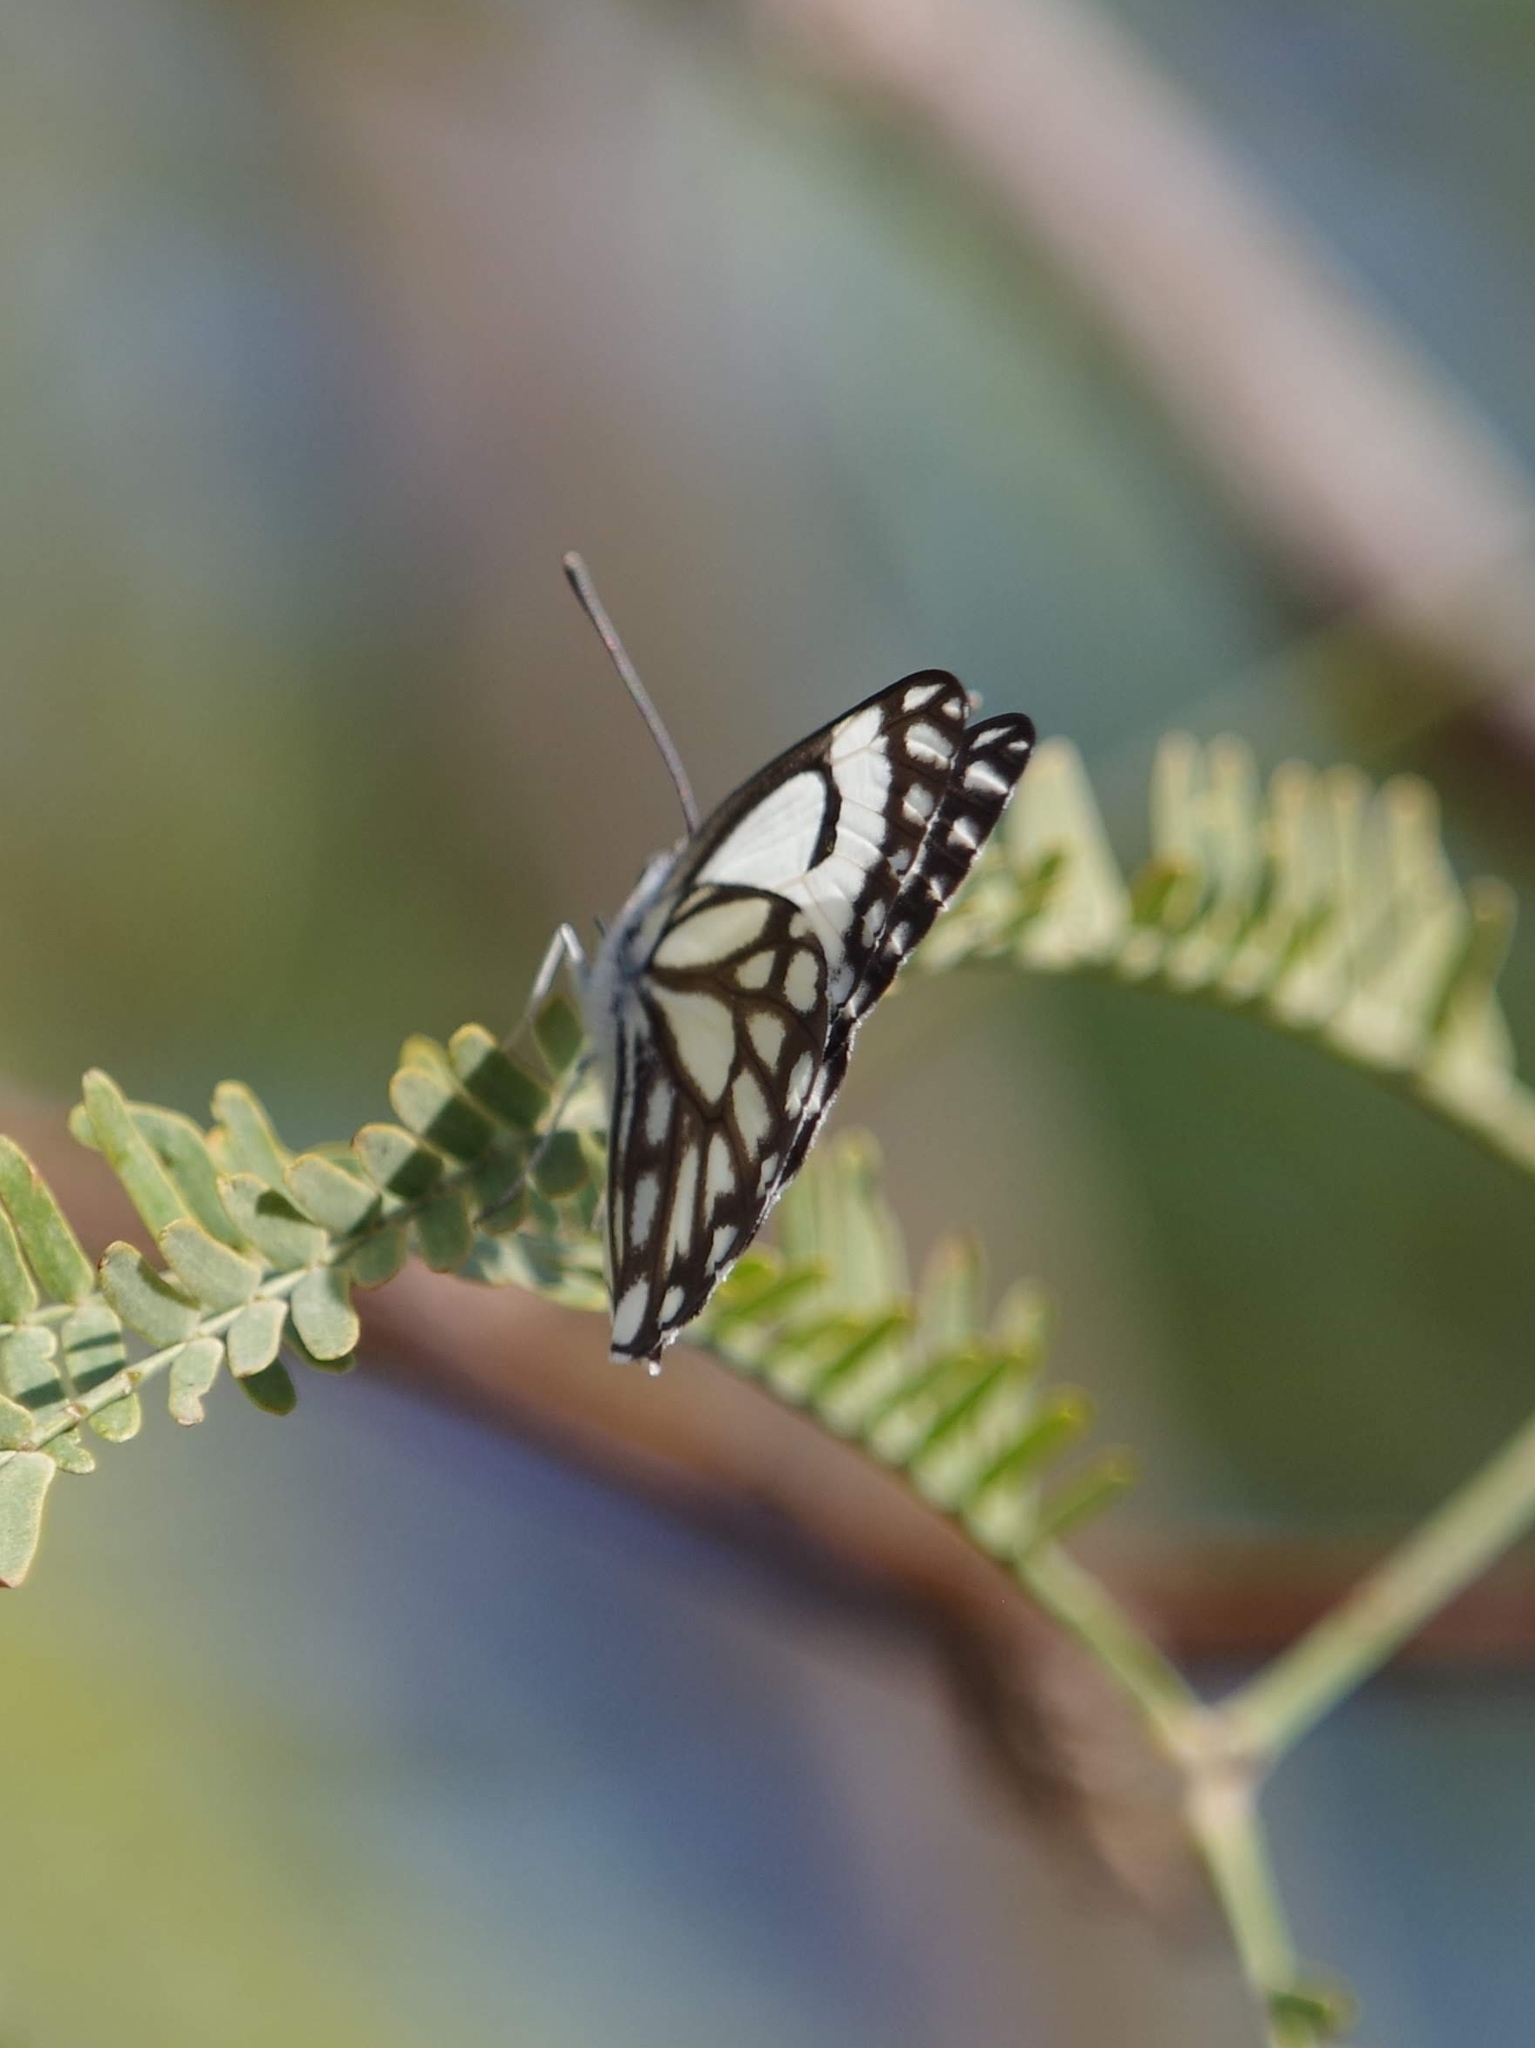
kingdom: Animalia
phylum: Arthropoda
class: Insecta
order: Lepidoptera
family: Pieridae
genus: Belenois
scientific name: Belenois aurota
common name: Brown-veined white
